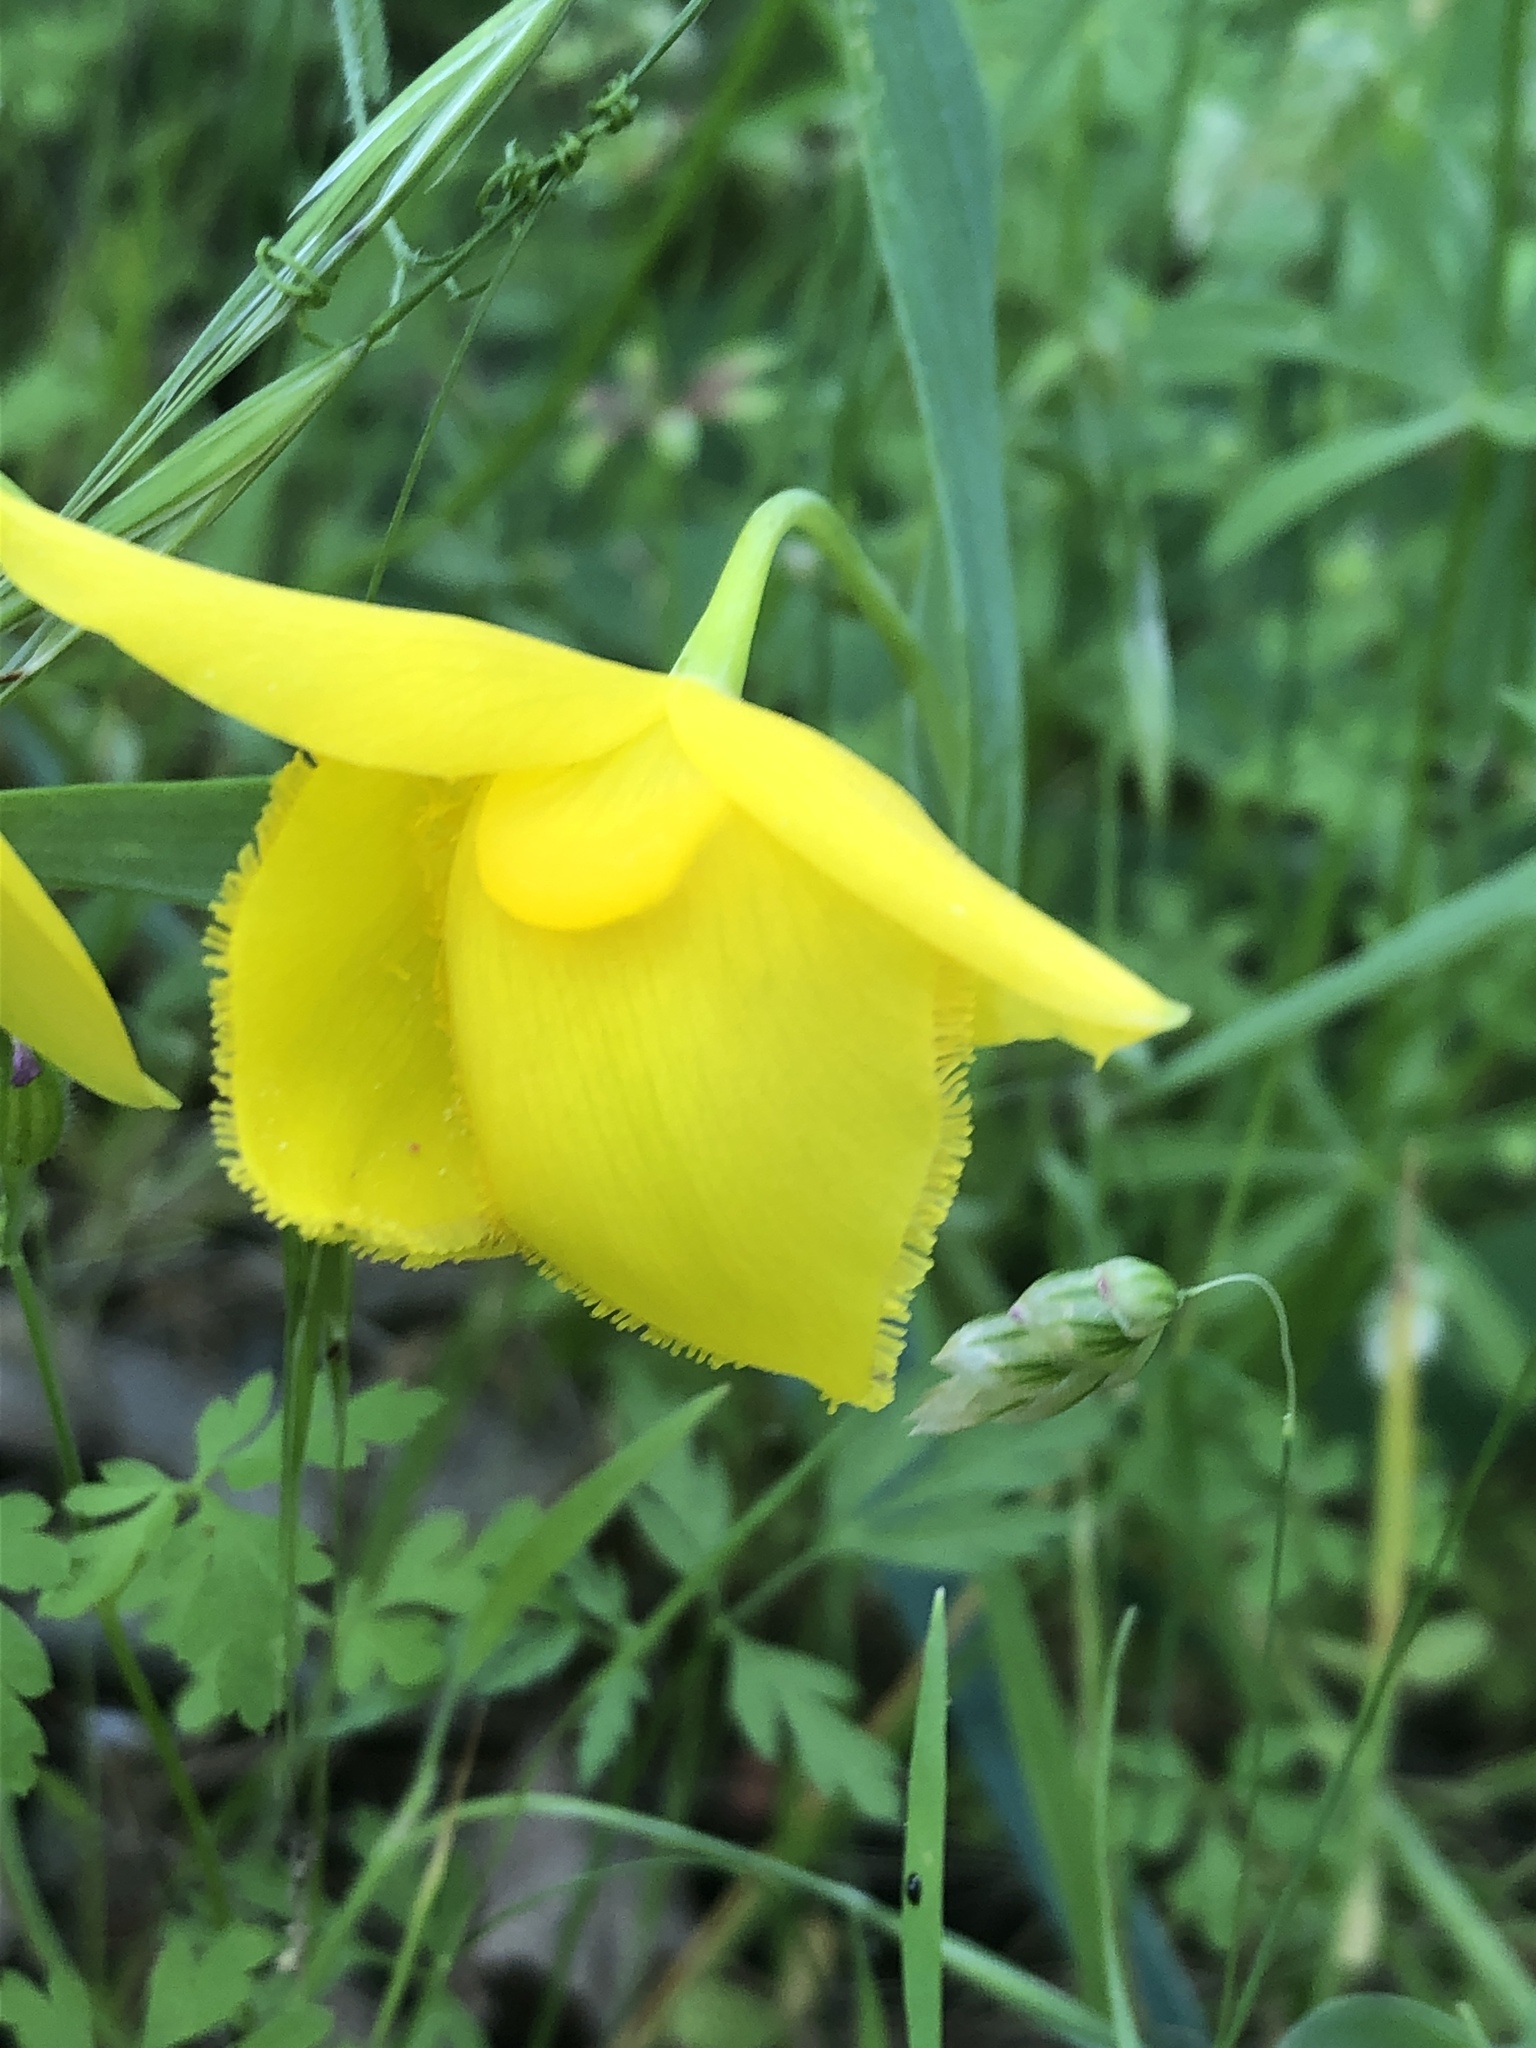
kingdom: Plantae
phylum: Tracheophyta
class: Liliopsida
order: Liliales
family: Liliaceae
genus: Calochortus
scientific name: Calochortus amabilis
